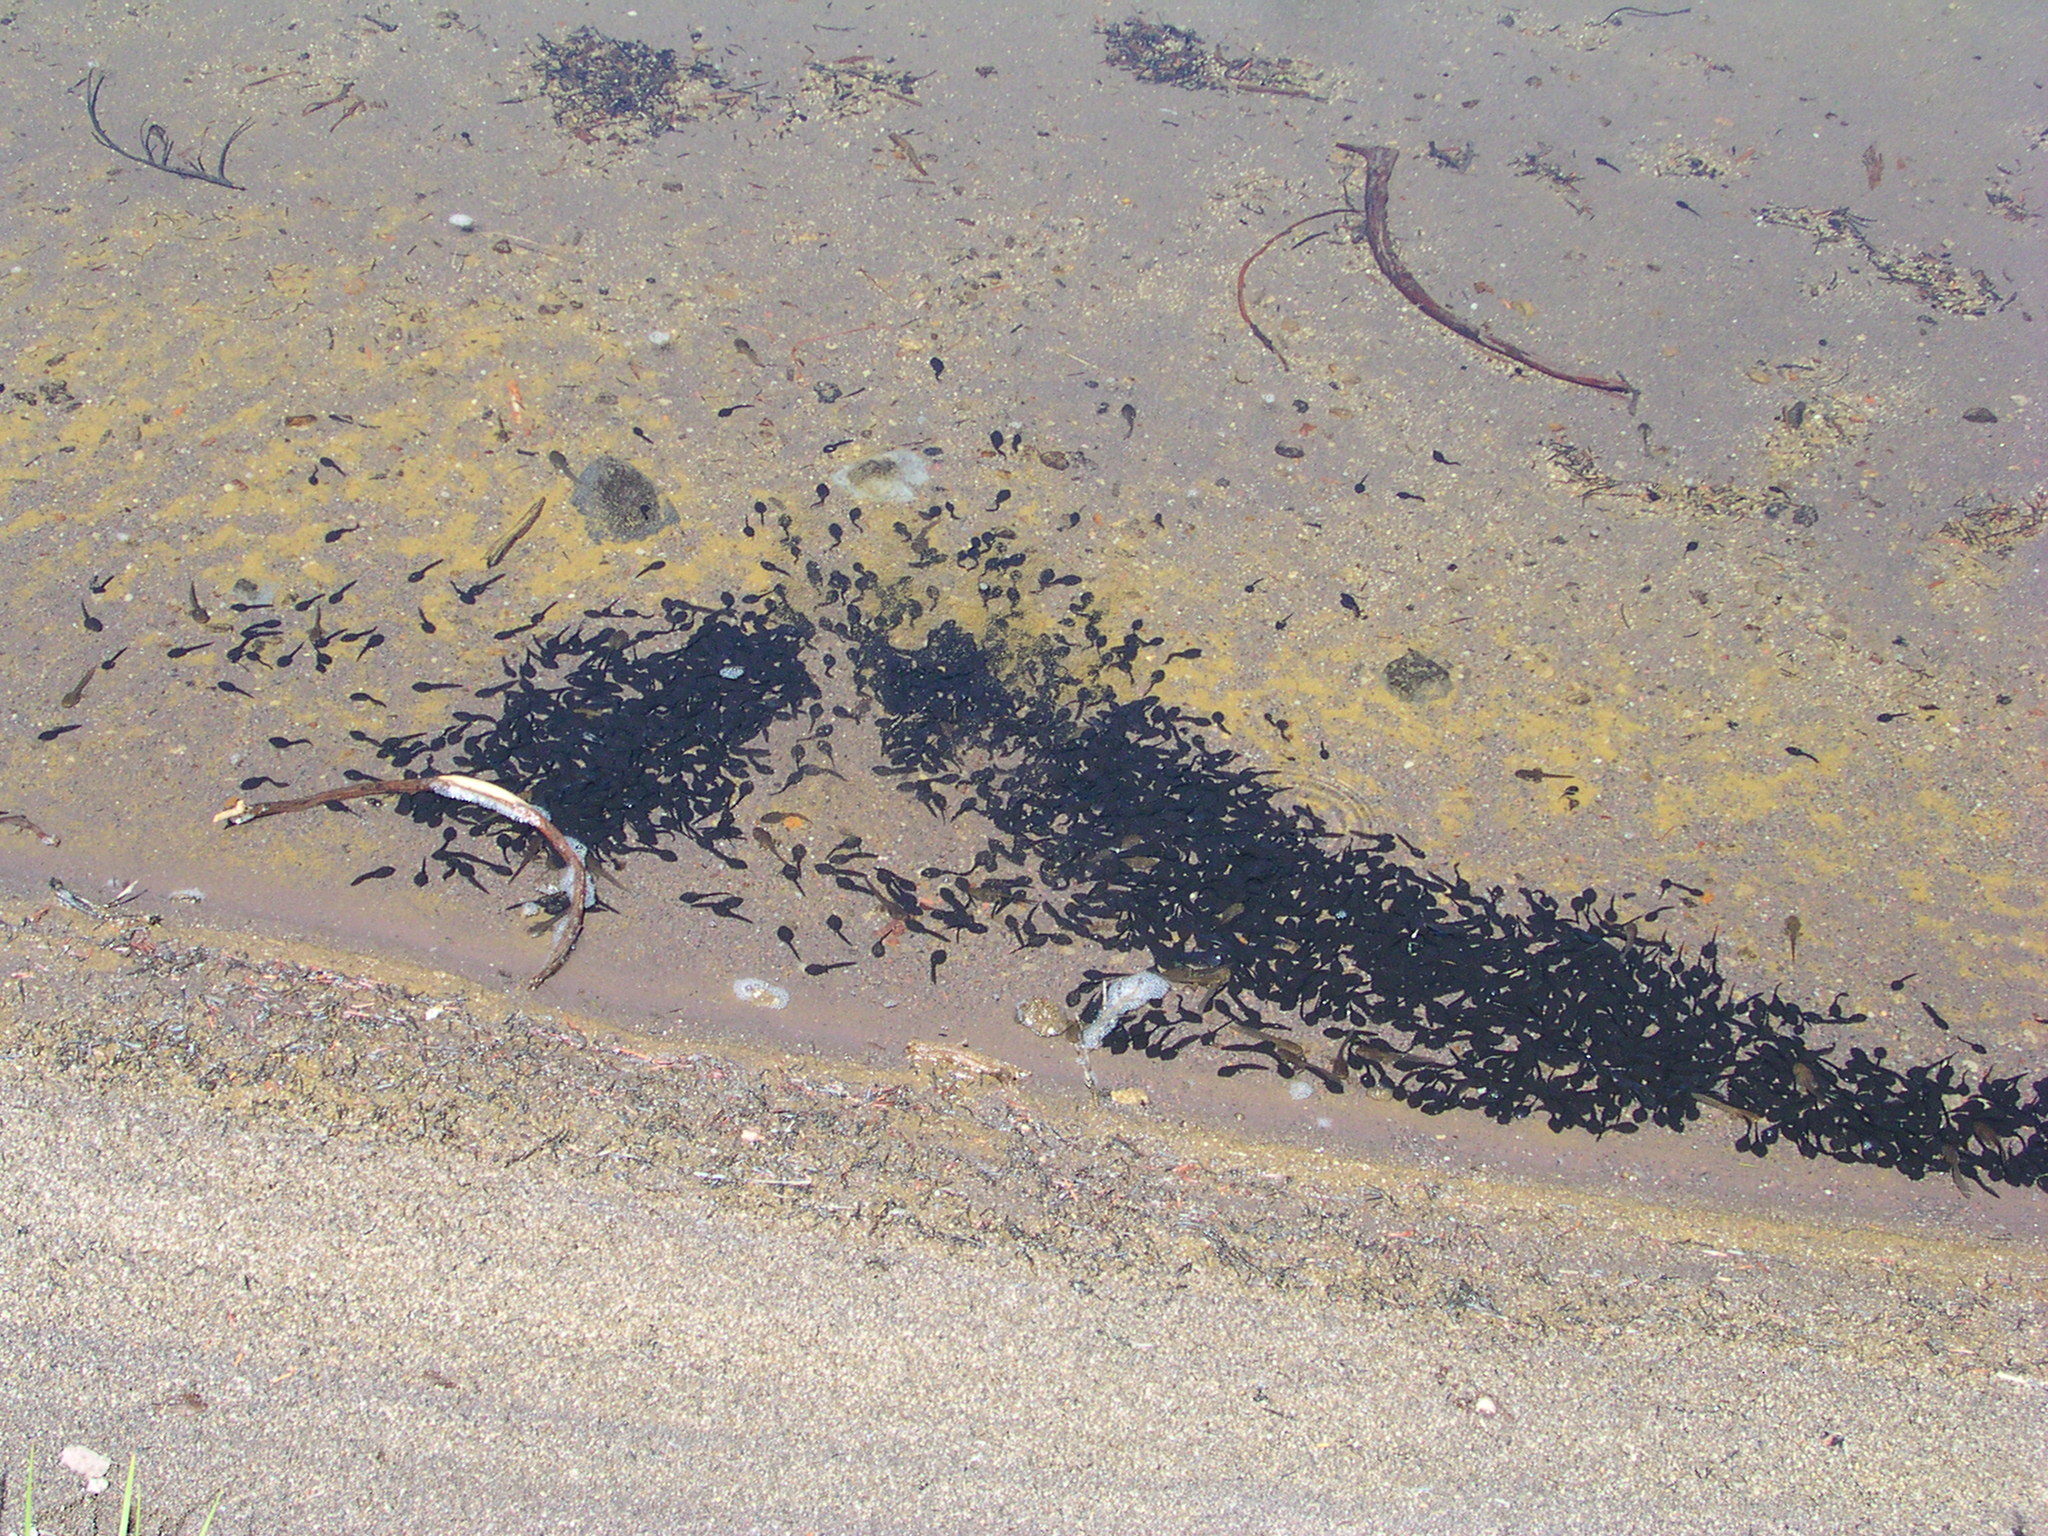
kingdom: Animalia
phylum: Chordata
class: Amphibia
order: Anura
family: Bufonidae
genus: Anaxyrus
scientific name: Anaxyrus boreas
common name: Western toad
